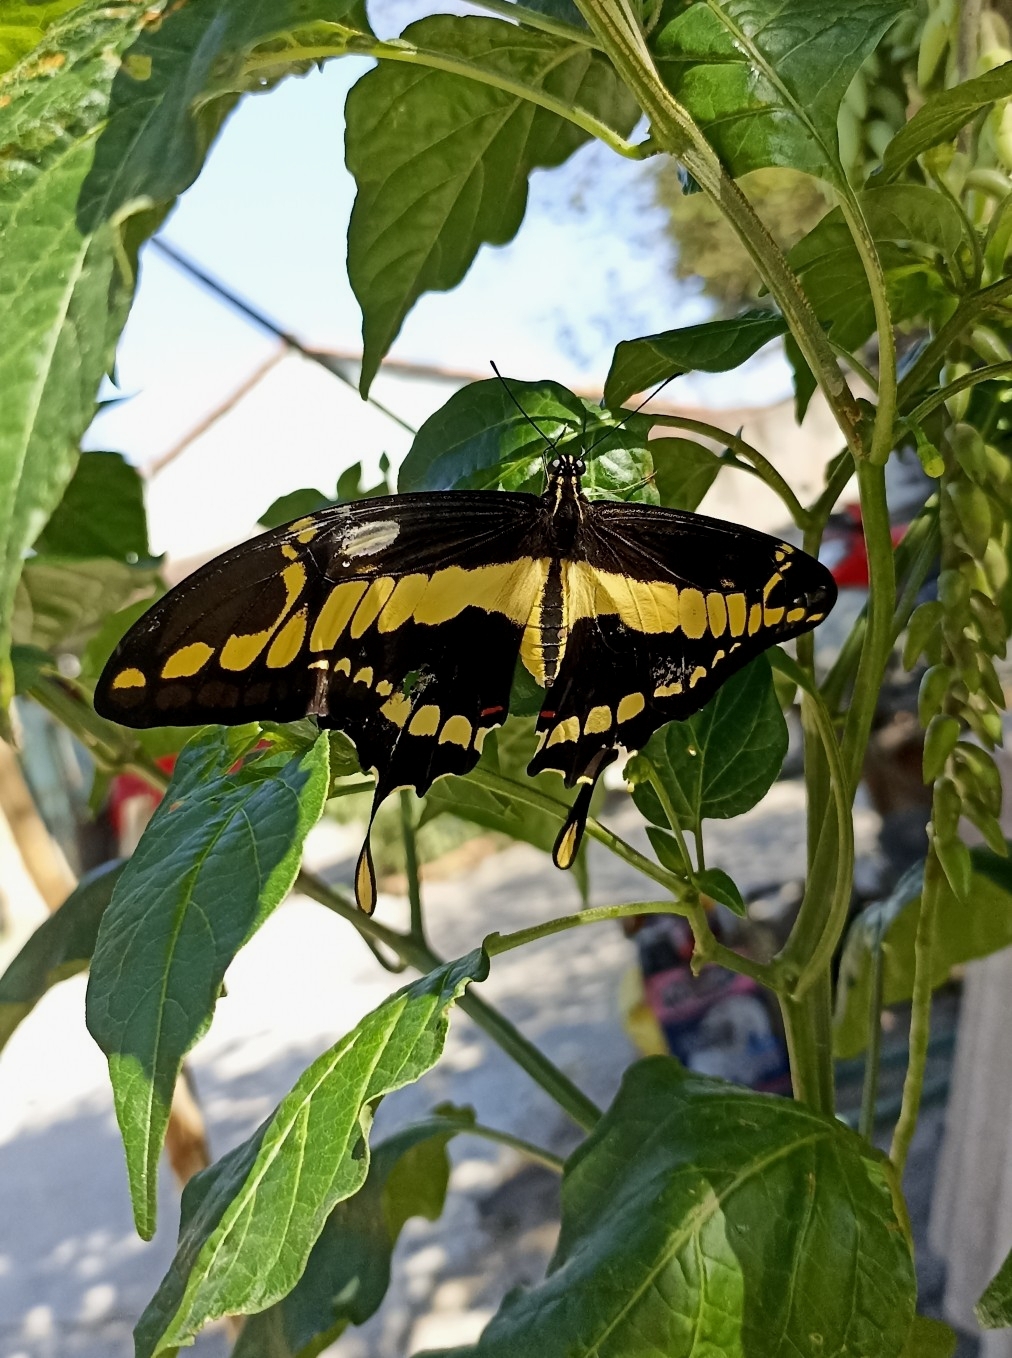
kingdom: Animalia
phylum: Arthropoda
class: Insecta
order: Lepidoptera
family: Papilionidae
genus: Papilio
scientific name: Papilio thoas
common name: King swallowtail
